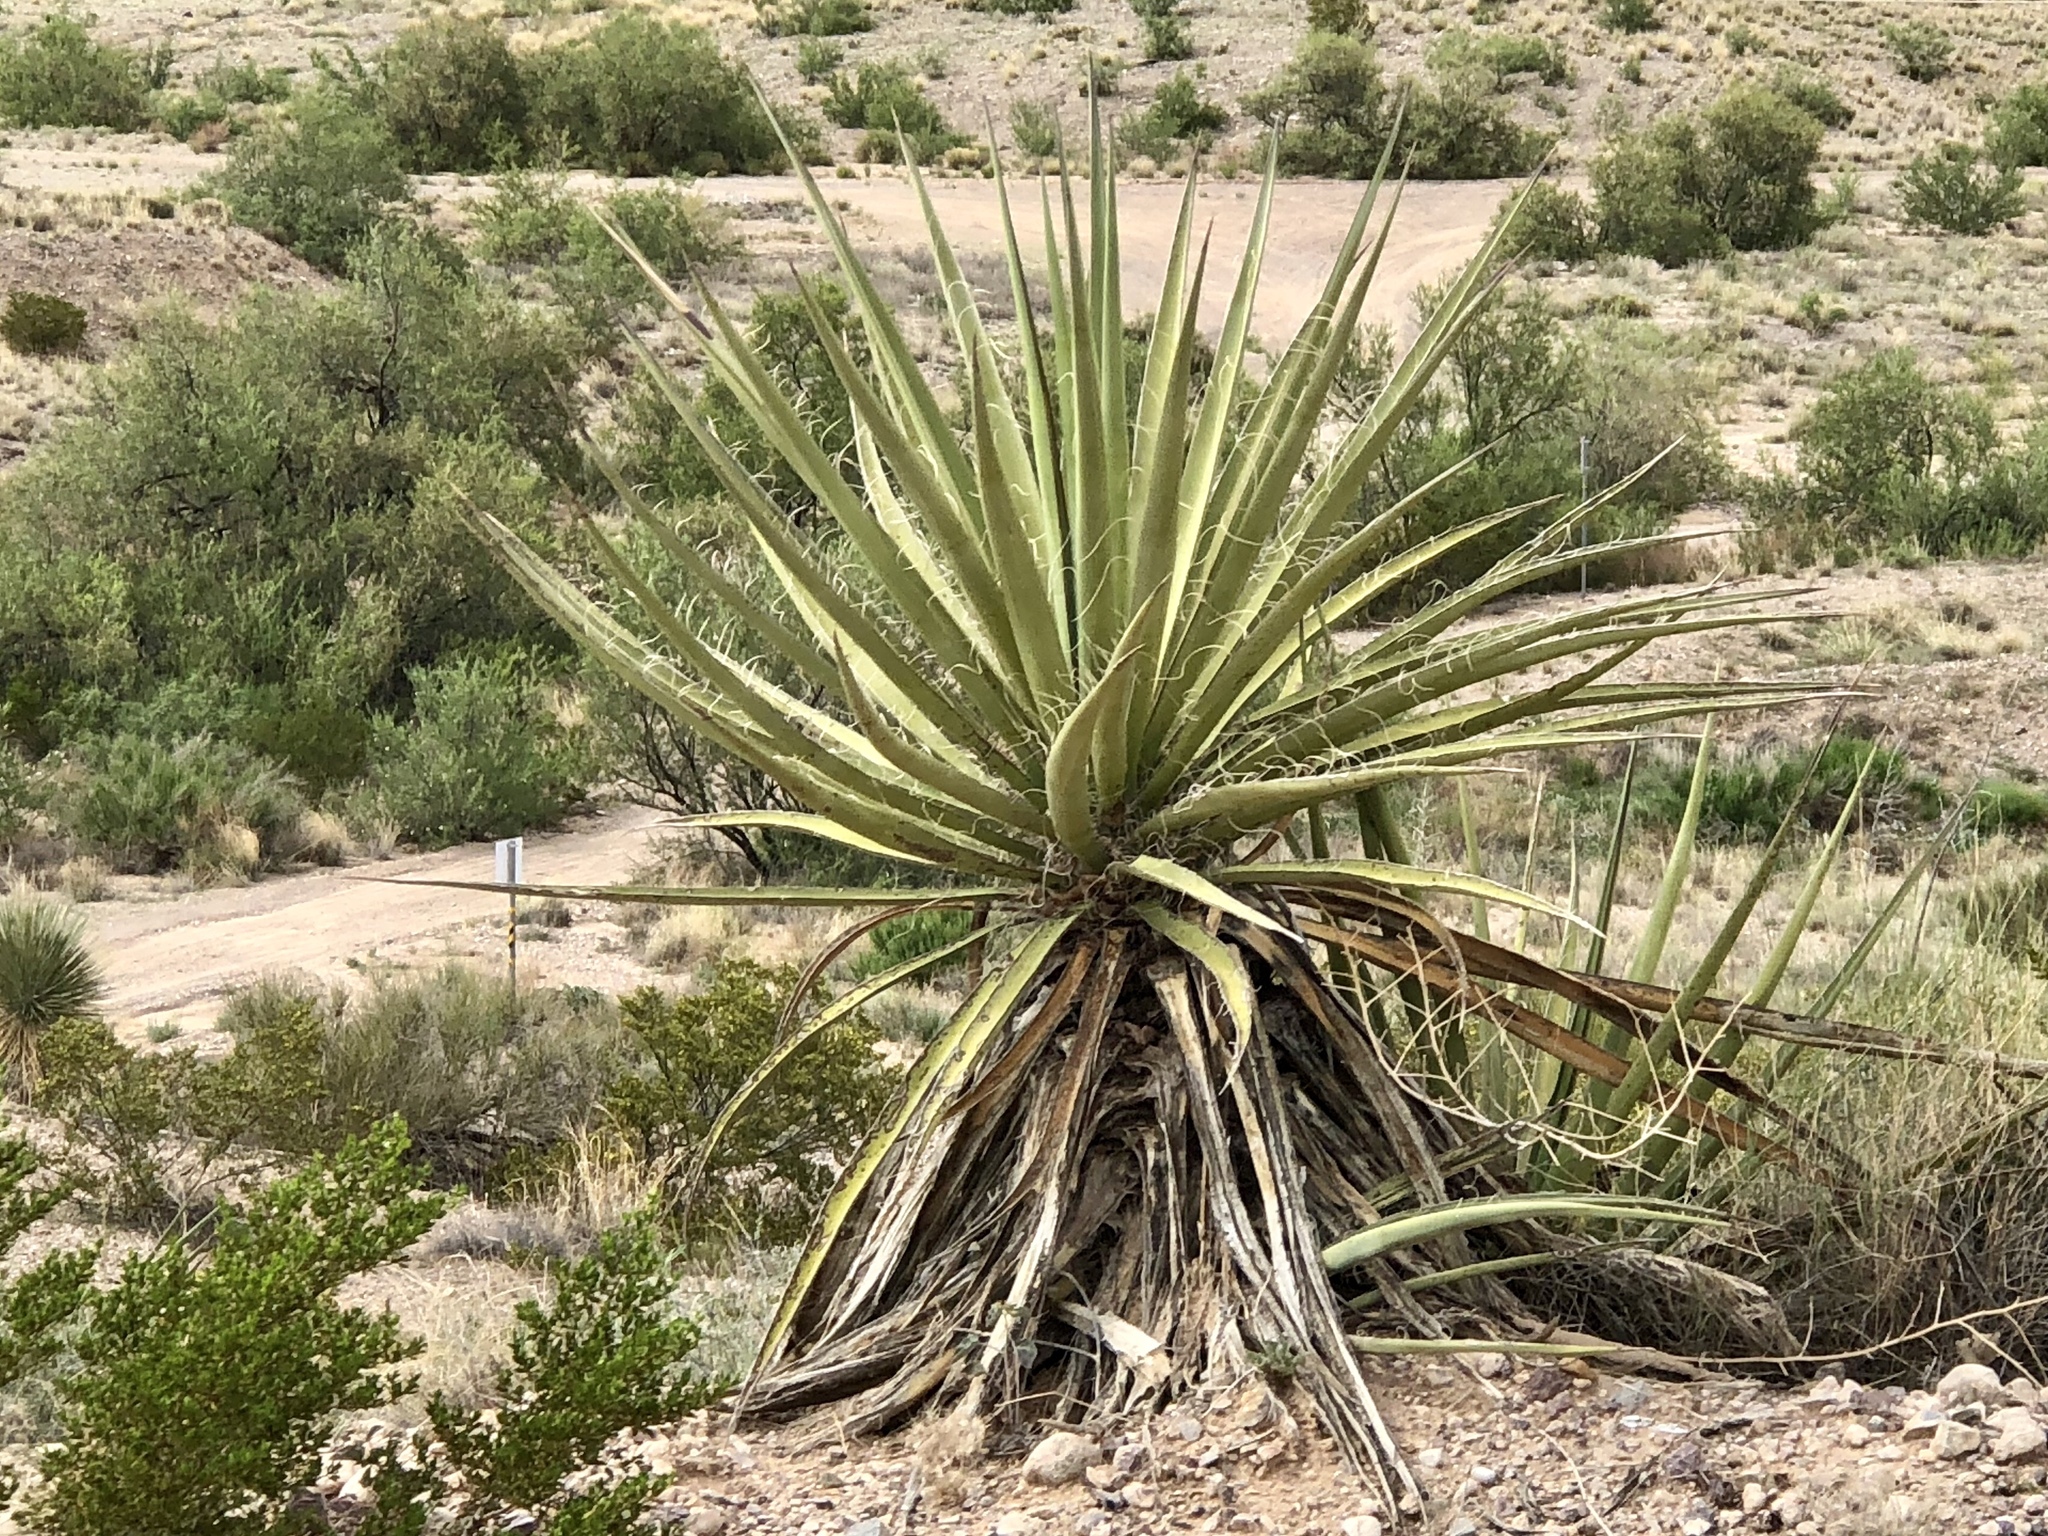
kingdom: Plantae
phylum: Tracheophyta
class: Liliopsida
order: Asparagales
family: Asparagaceae
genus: Yucca
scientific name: Yucca treculiana
